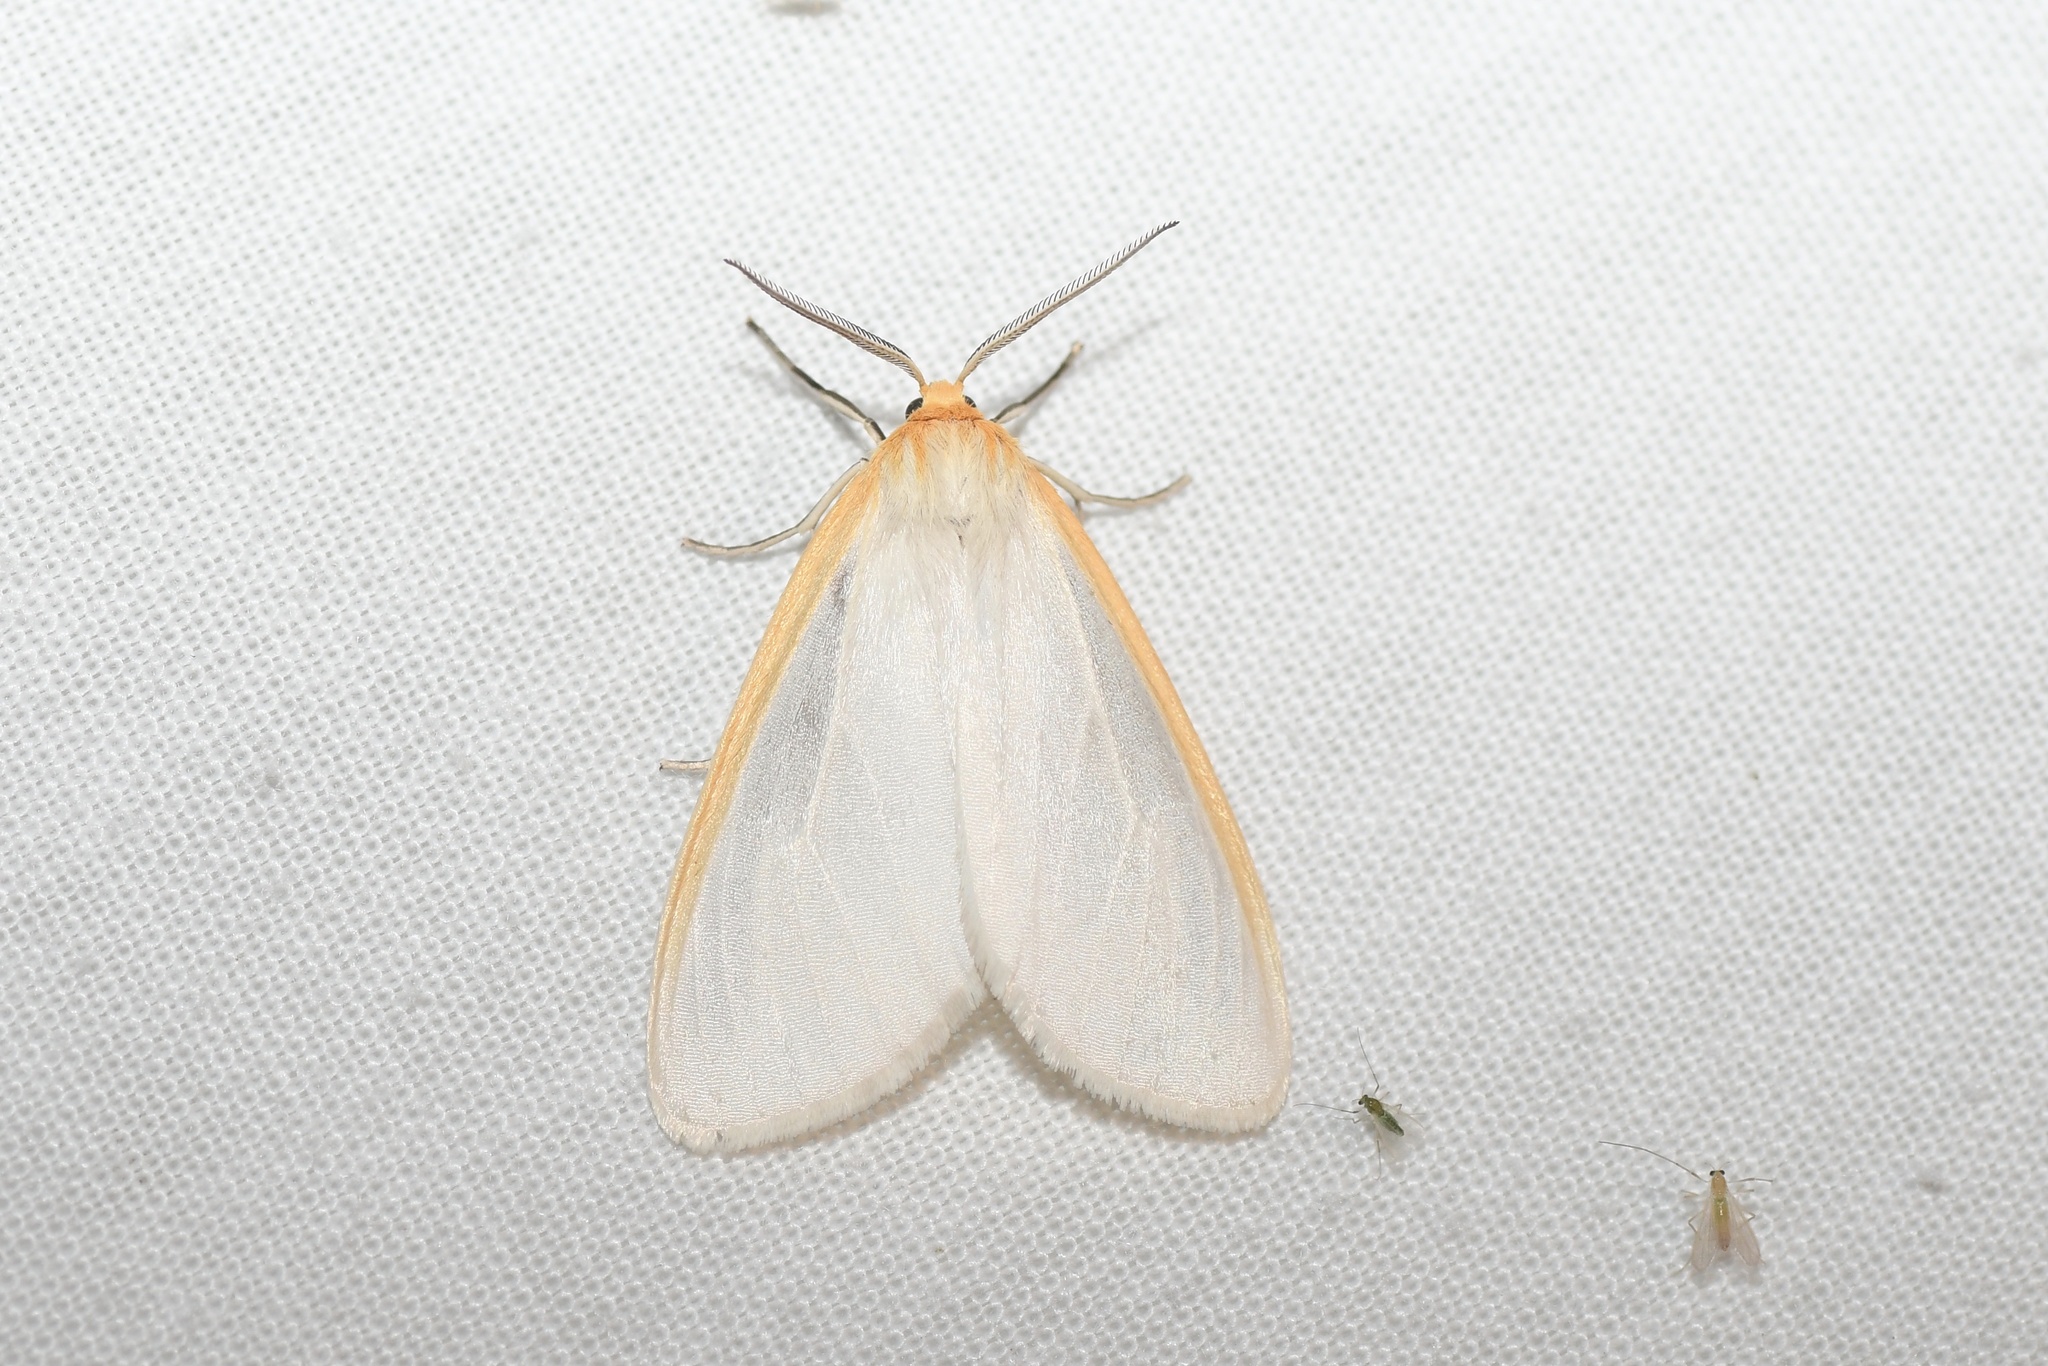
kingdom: Animalia
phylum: Arthropoda
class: Insecta
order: Lepidoptera
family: Erebidae
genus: Cycnia
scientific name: Cycnia tenera
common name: Delicate cycnia moth
